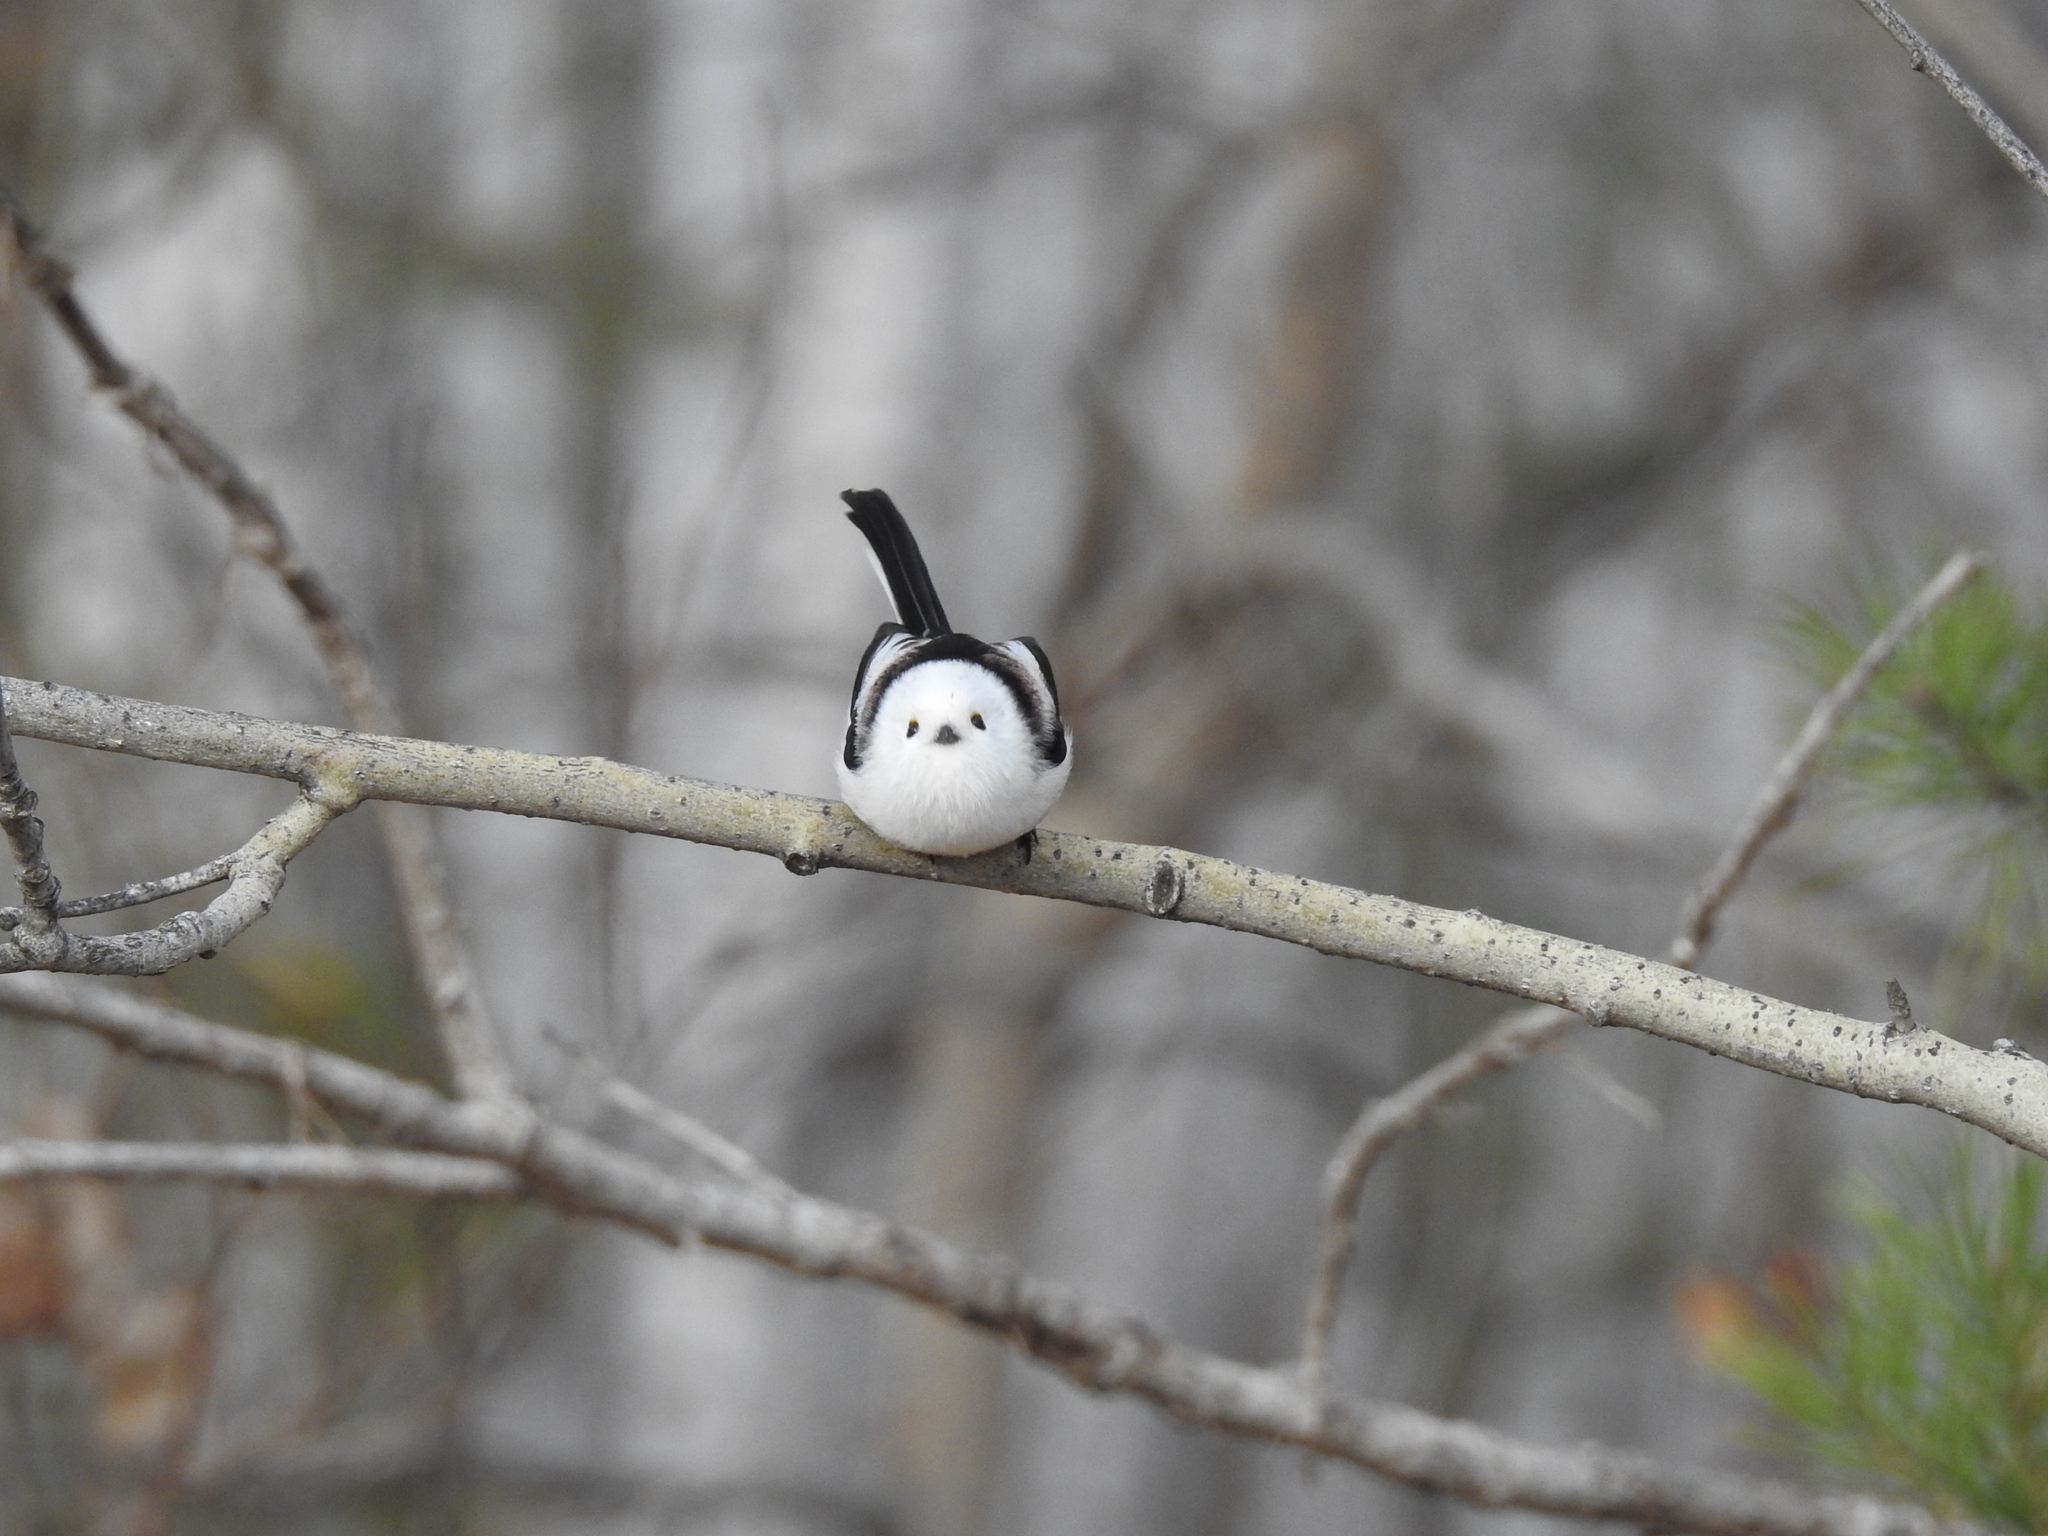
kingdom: Animalia
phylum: Chordata
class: Aves
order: Passeriformes
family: Aegithalidae
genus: Aegithalos
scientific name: Aegithalos caudatus
